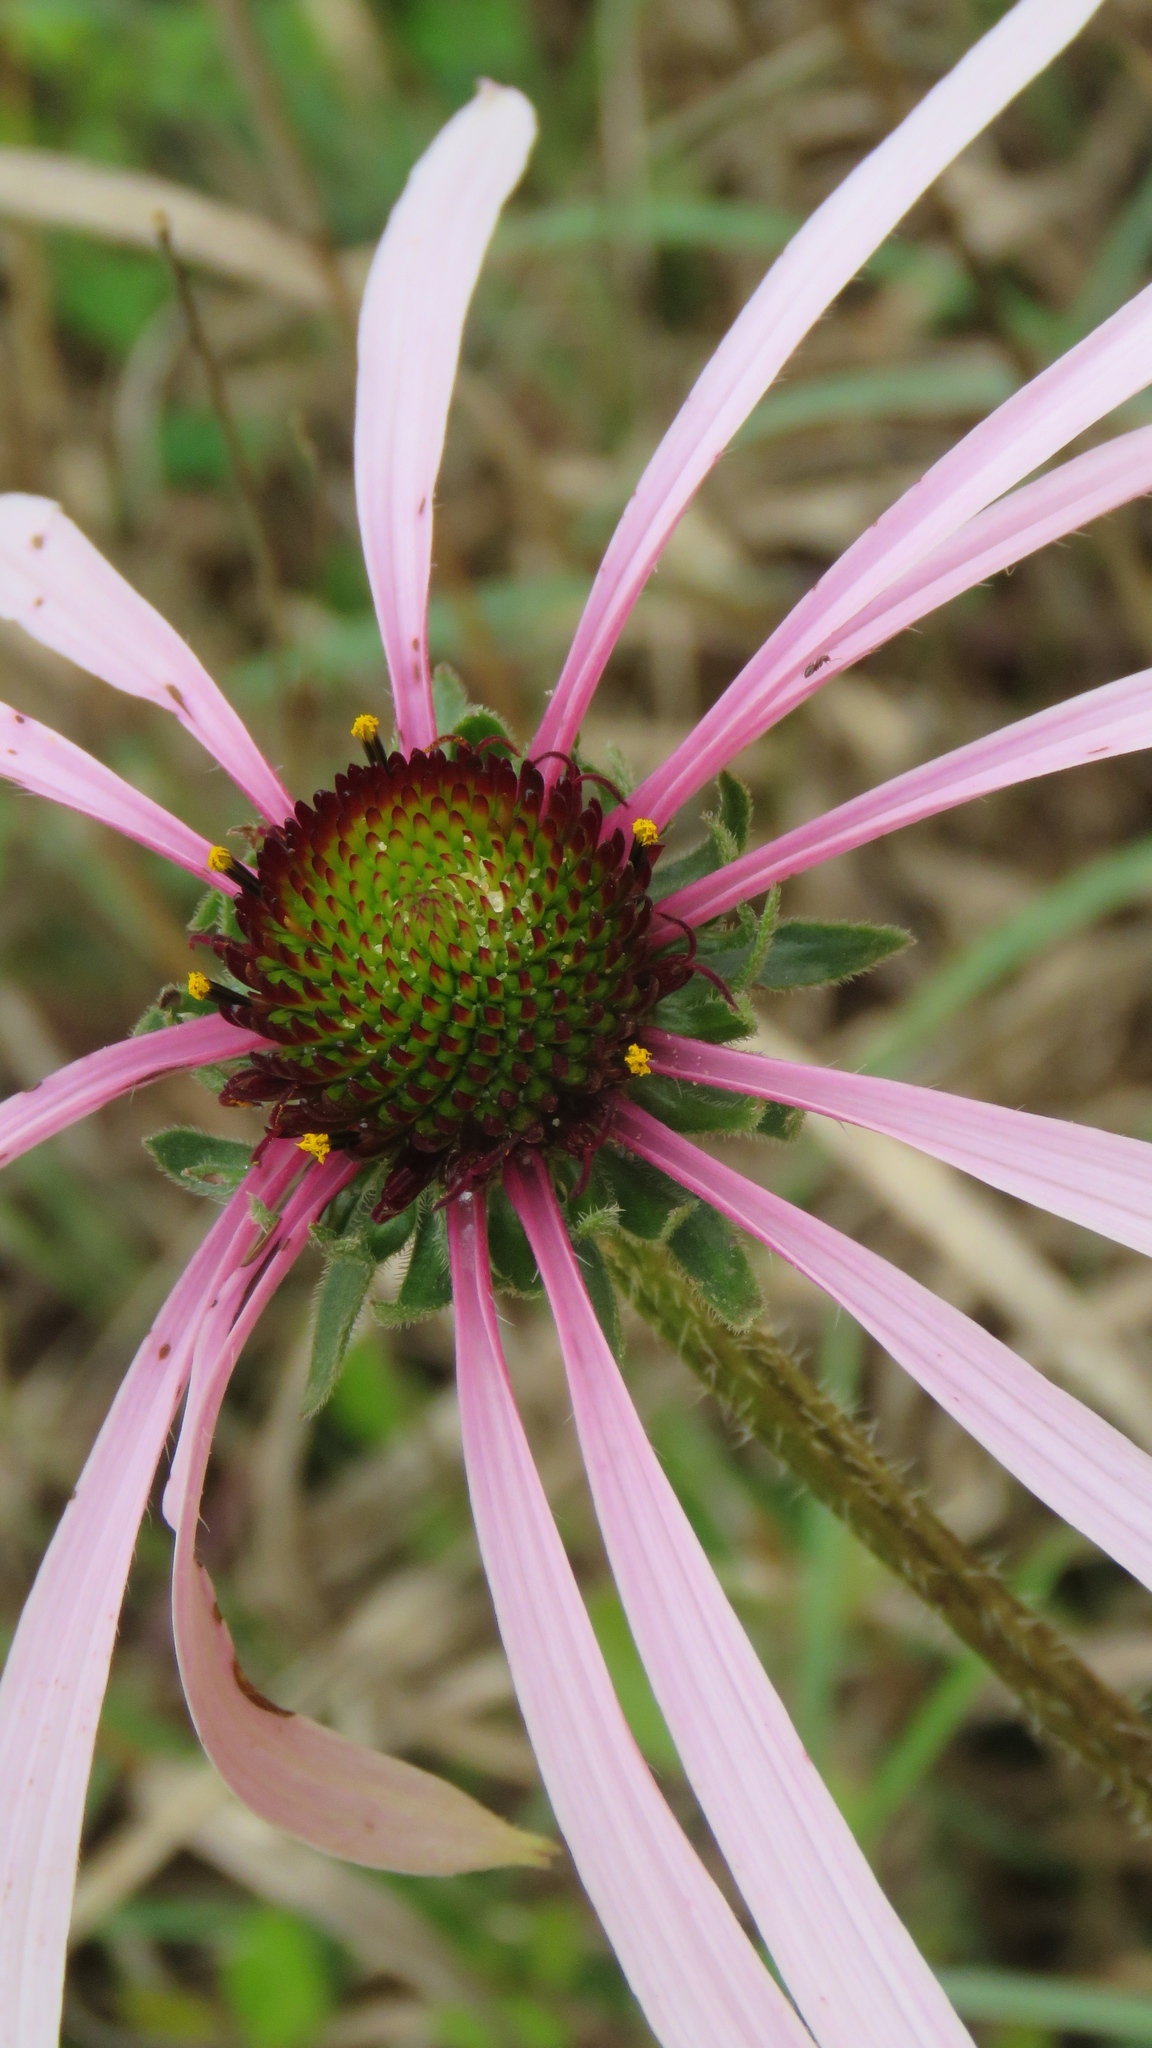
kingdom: Plantae
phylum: Tracheophyta
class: Magnoliopsida
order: Asterales
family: Asteraceae
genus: Echinacea
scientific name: Echinacea sanguinea
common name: Sanguine purple-coneflower
